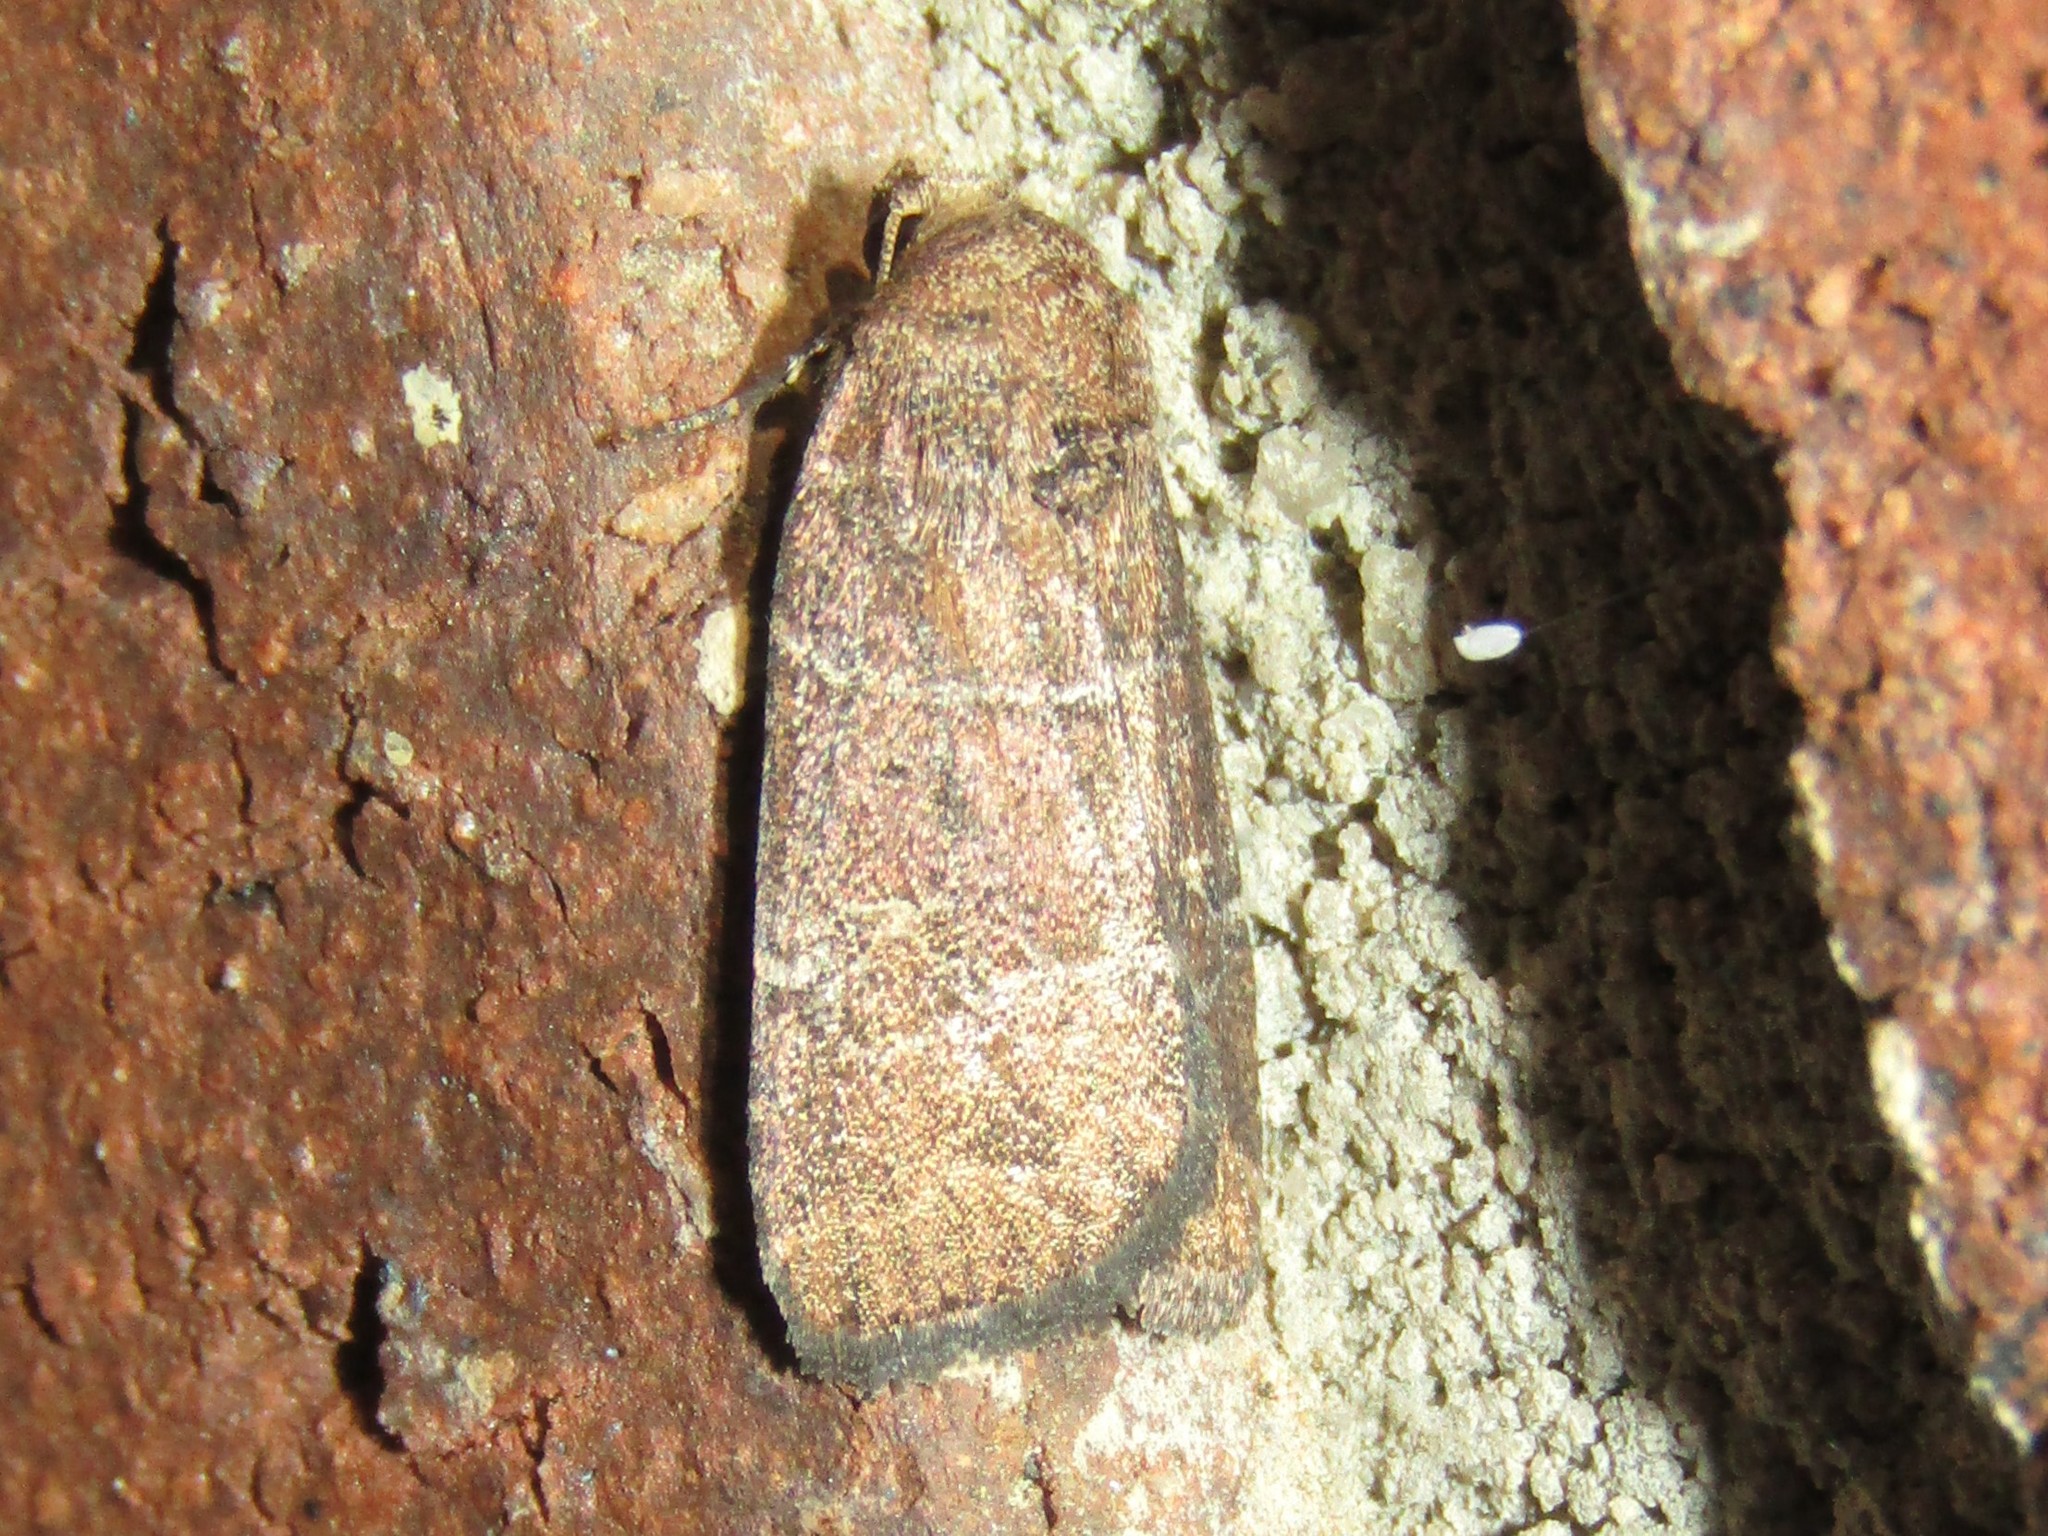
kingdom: Animalia
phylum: Arthropoda
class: Insecta
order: Lepidoptera
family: Noctuidae
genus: Elaphria
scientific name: Elaphria grata
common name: Grateful midget moth
